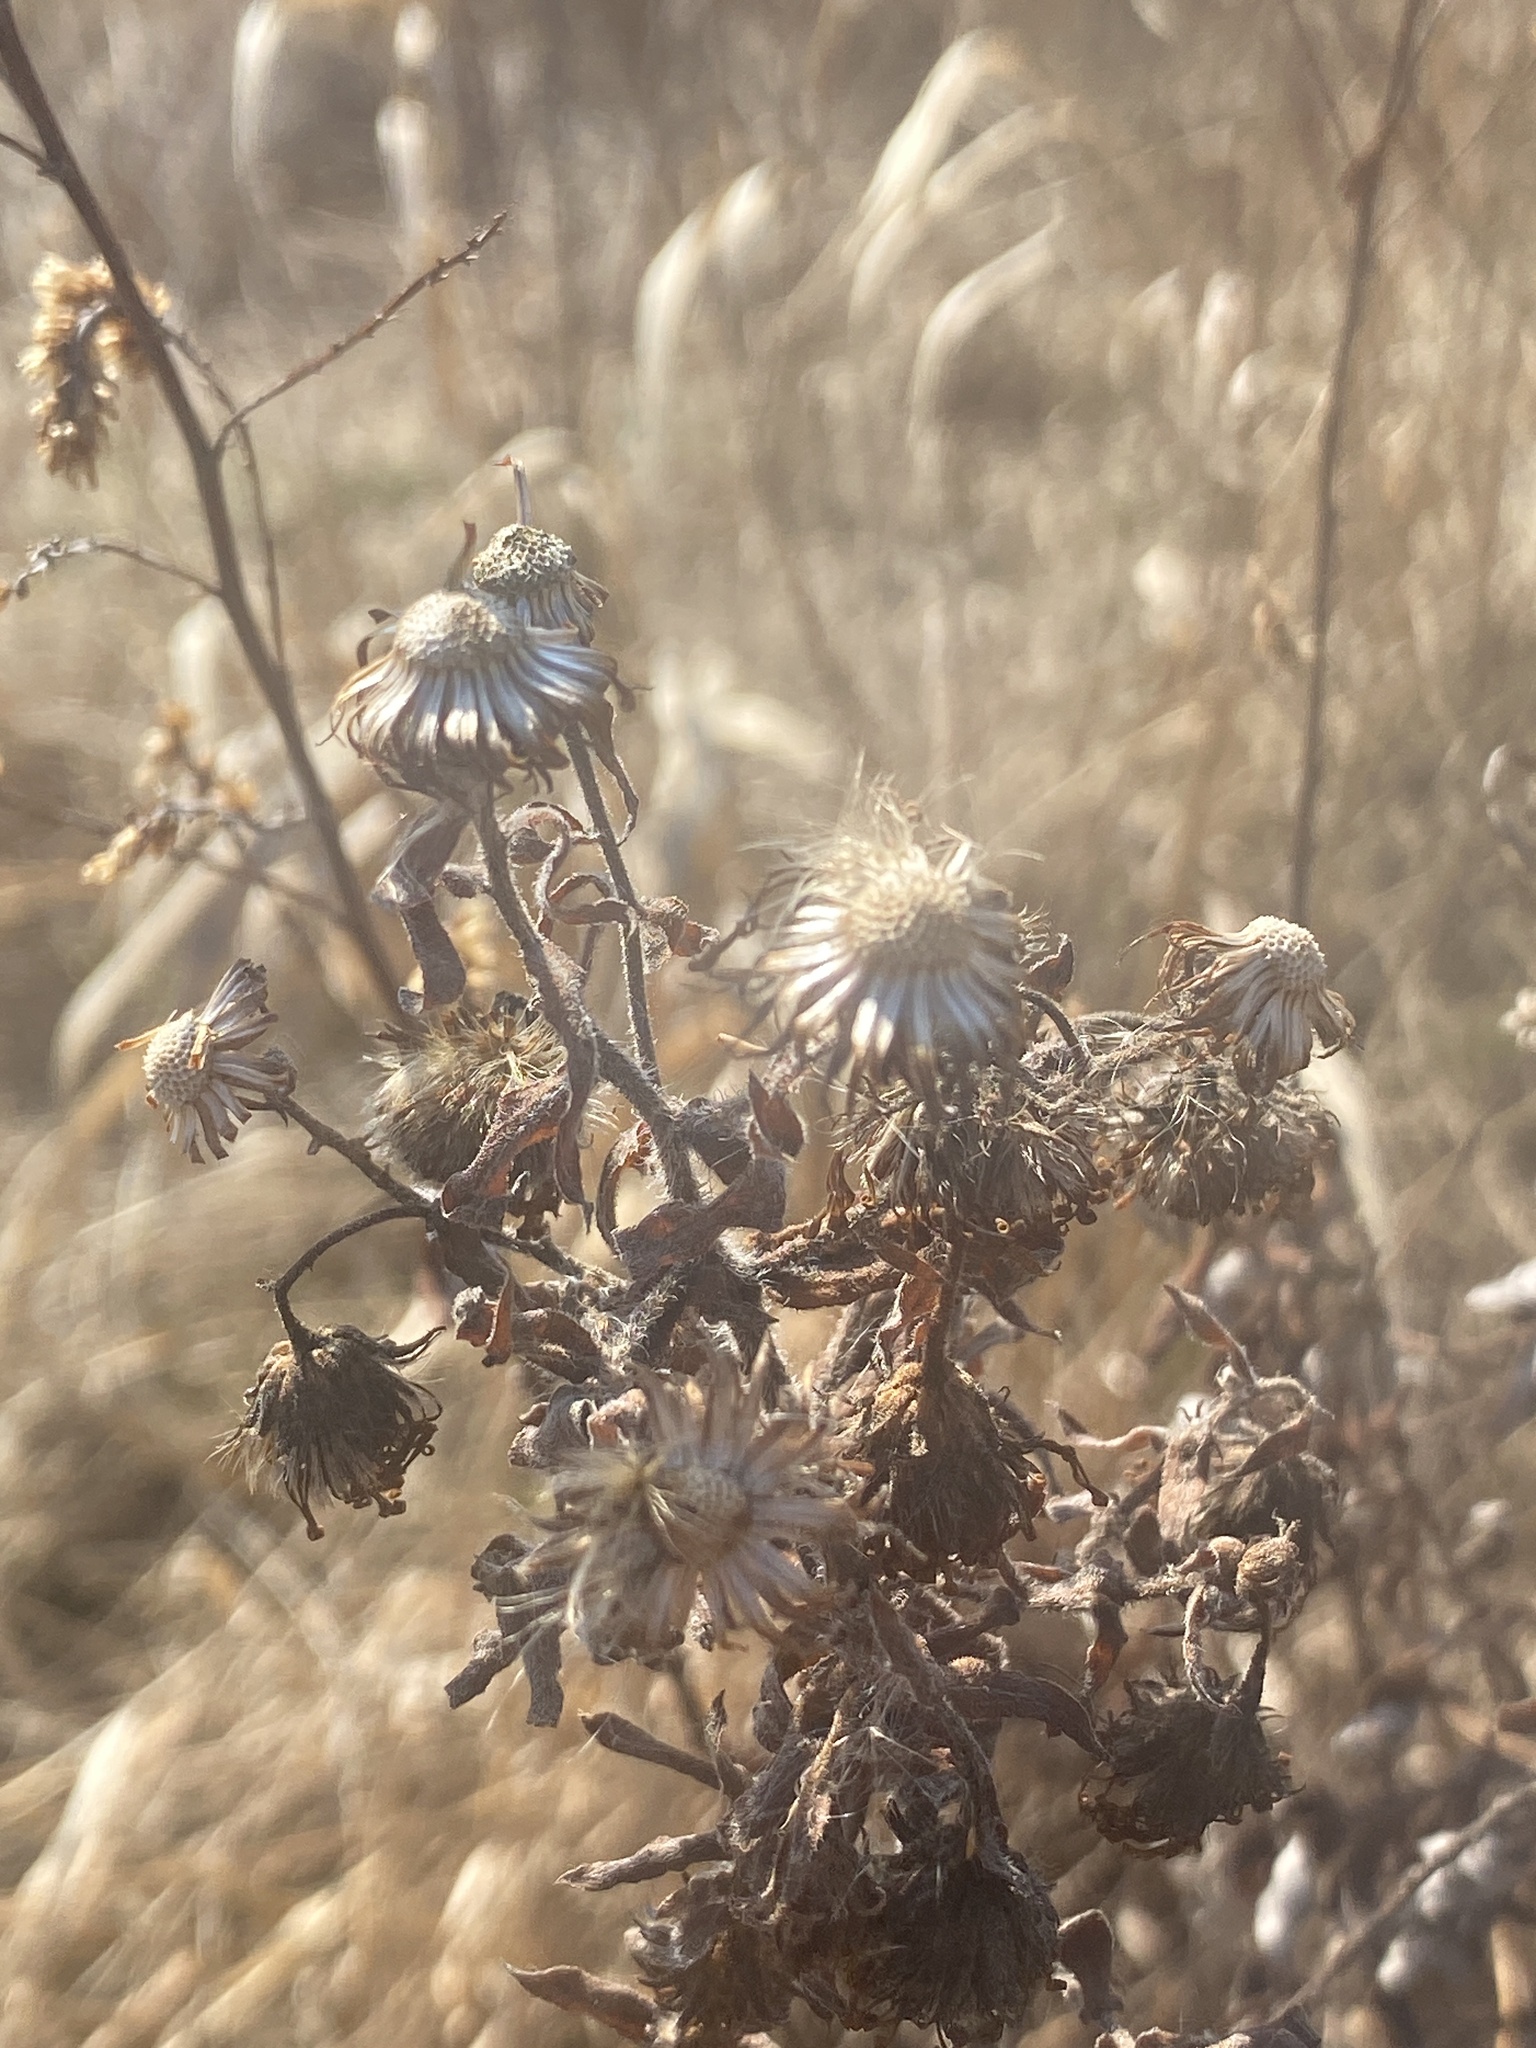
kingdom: Plantae
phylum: Tracheophyta
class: Magnoliopsida
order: Asterales
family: Asteraceae
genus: Symphyotrichum
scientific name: Symphyotrichum novae-angliae
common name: Michaelmas daisy
